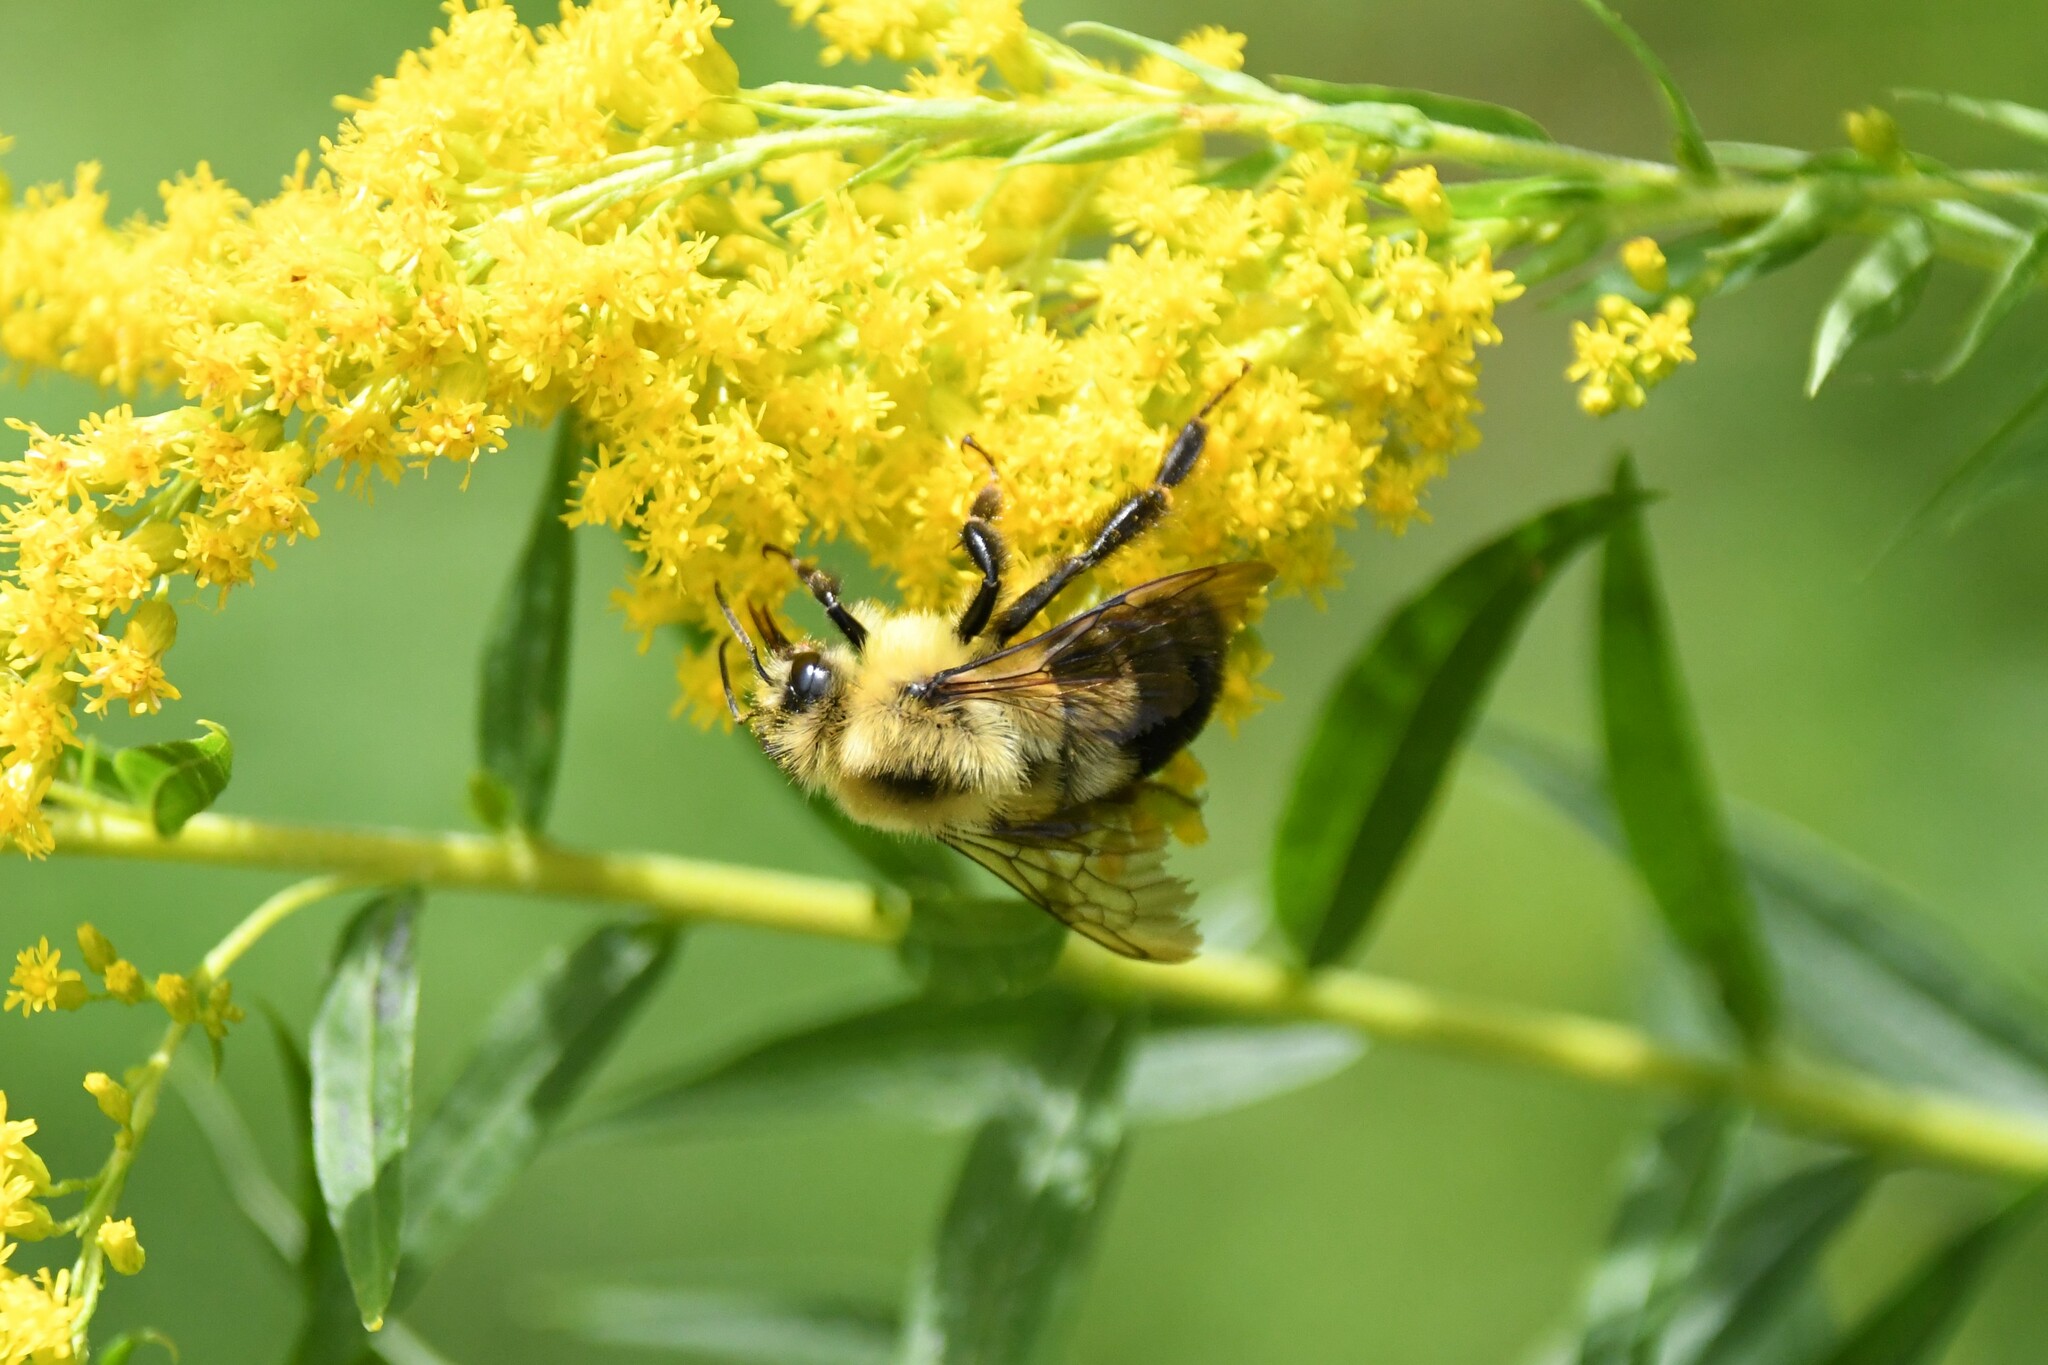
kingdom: Animalia
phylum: Arthropoda
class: Insecta
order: Hymenoptera
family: Apidae
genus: Bombus
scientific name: Bombus bimaculatus
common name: Two-spotted bumble bee
